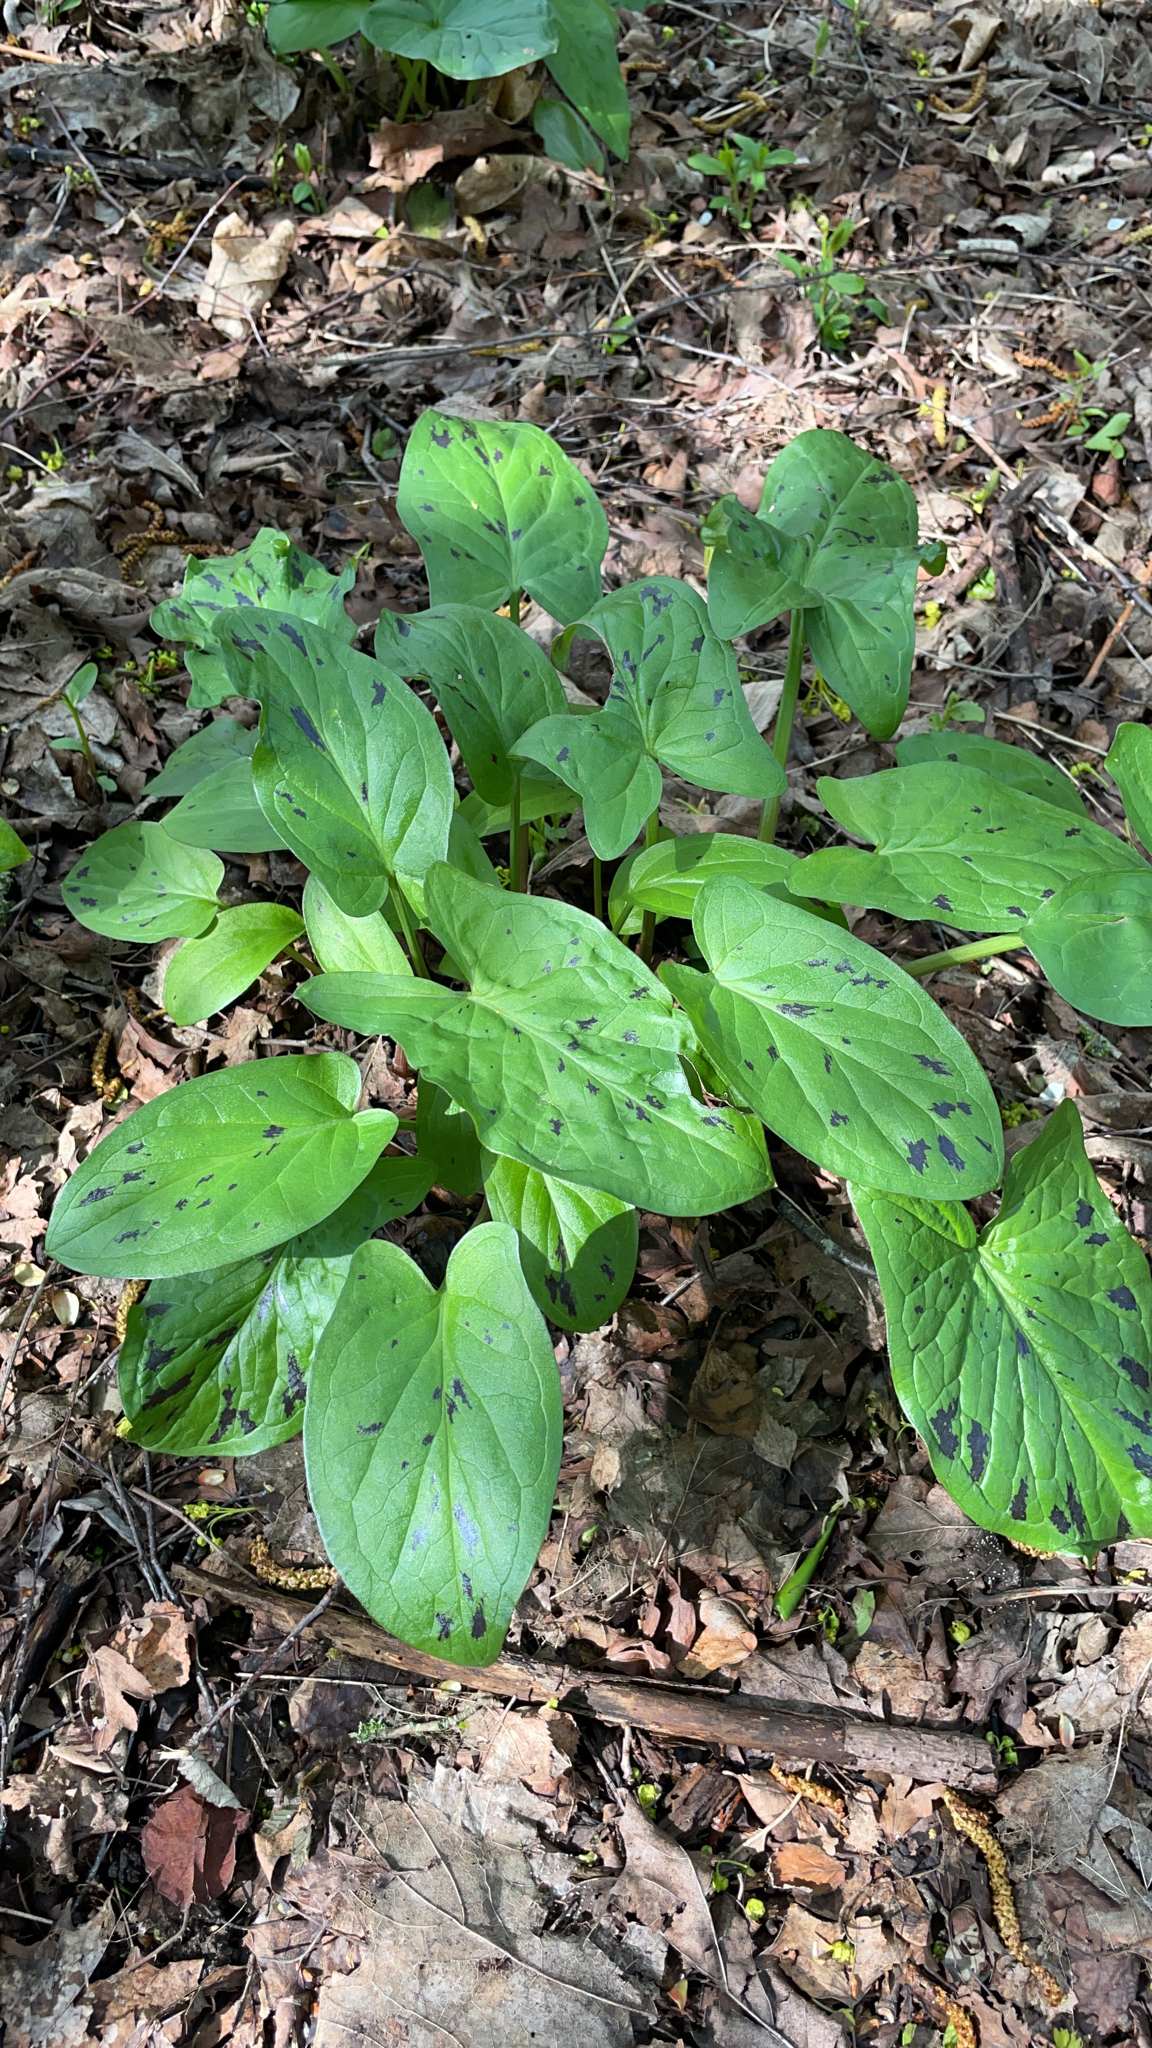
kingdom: Plantae
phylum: Tracheophyta
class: Liliopsida
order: Alismatales
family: Araceae
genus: Arum
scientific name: Arum maculatum
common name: Lords-and-ladies
